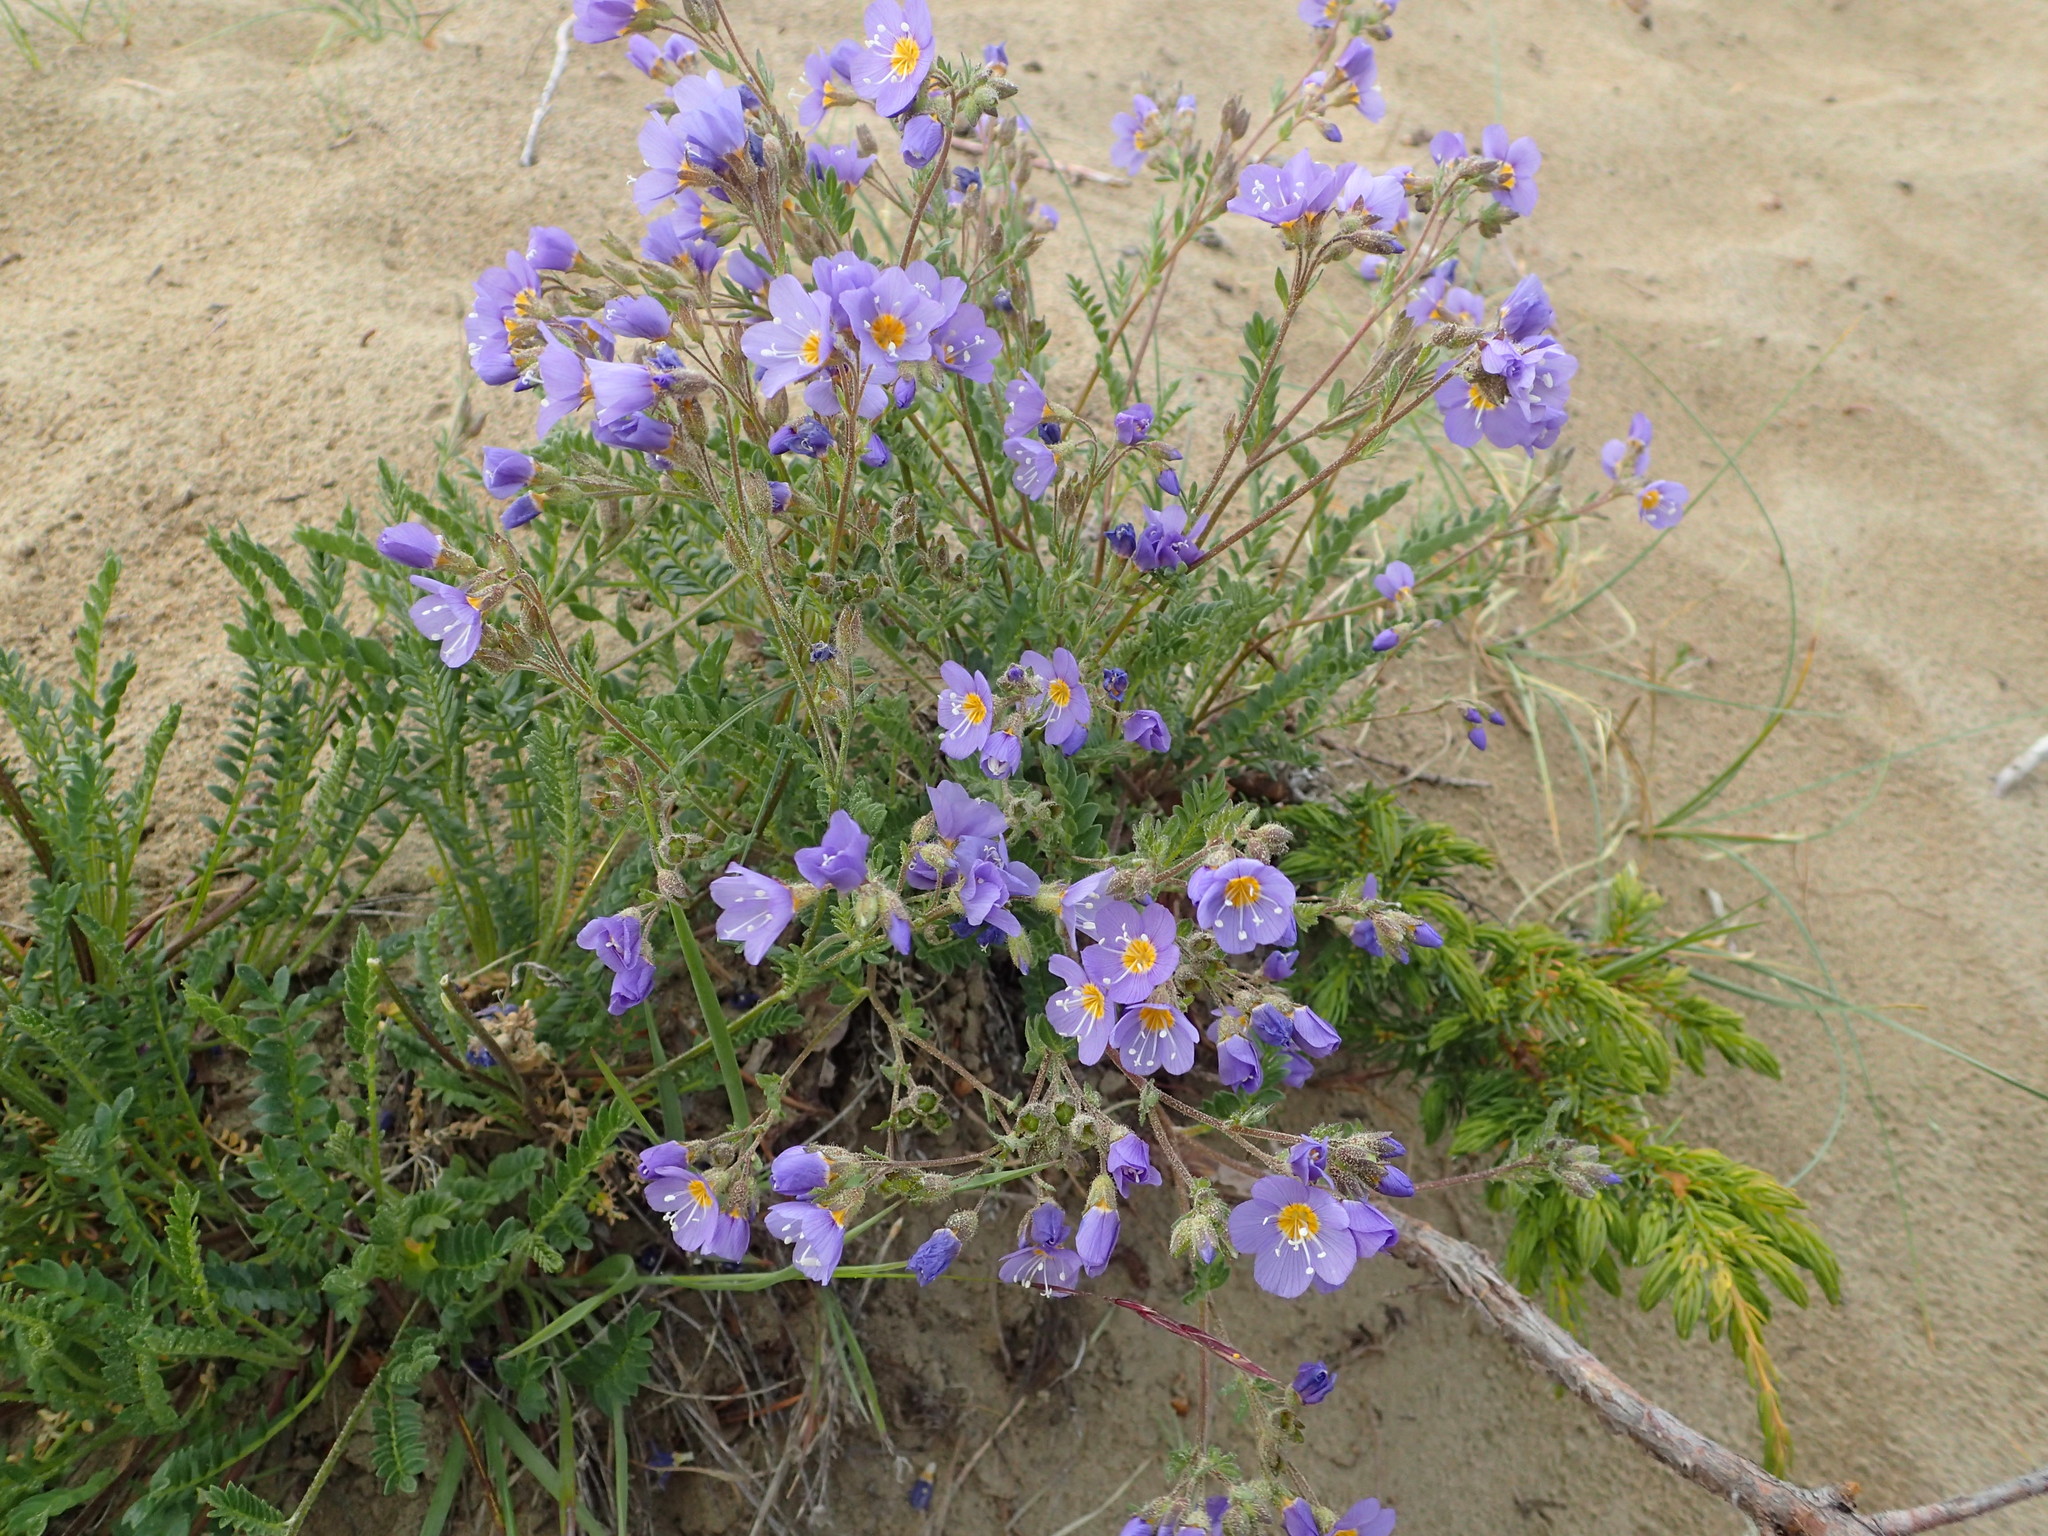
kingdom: Plantae
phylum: Tracheophyta
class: Magnoliopsida
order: Ericales
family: Polemoniaceae
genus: Polemonium
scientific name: Polemonium pulcherrimum
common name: Short jacob's-ladder
